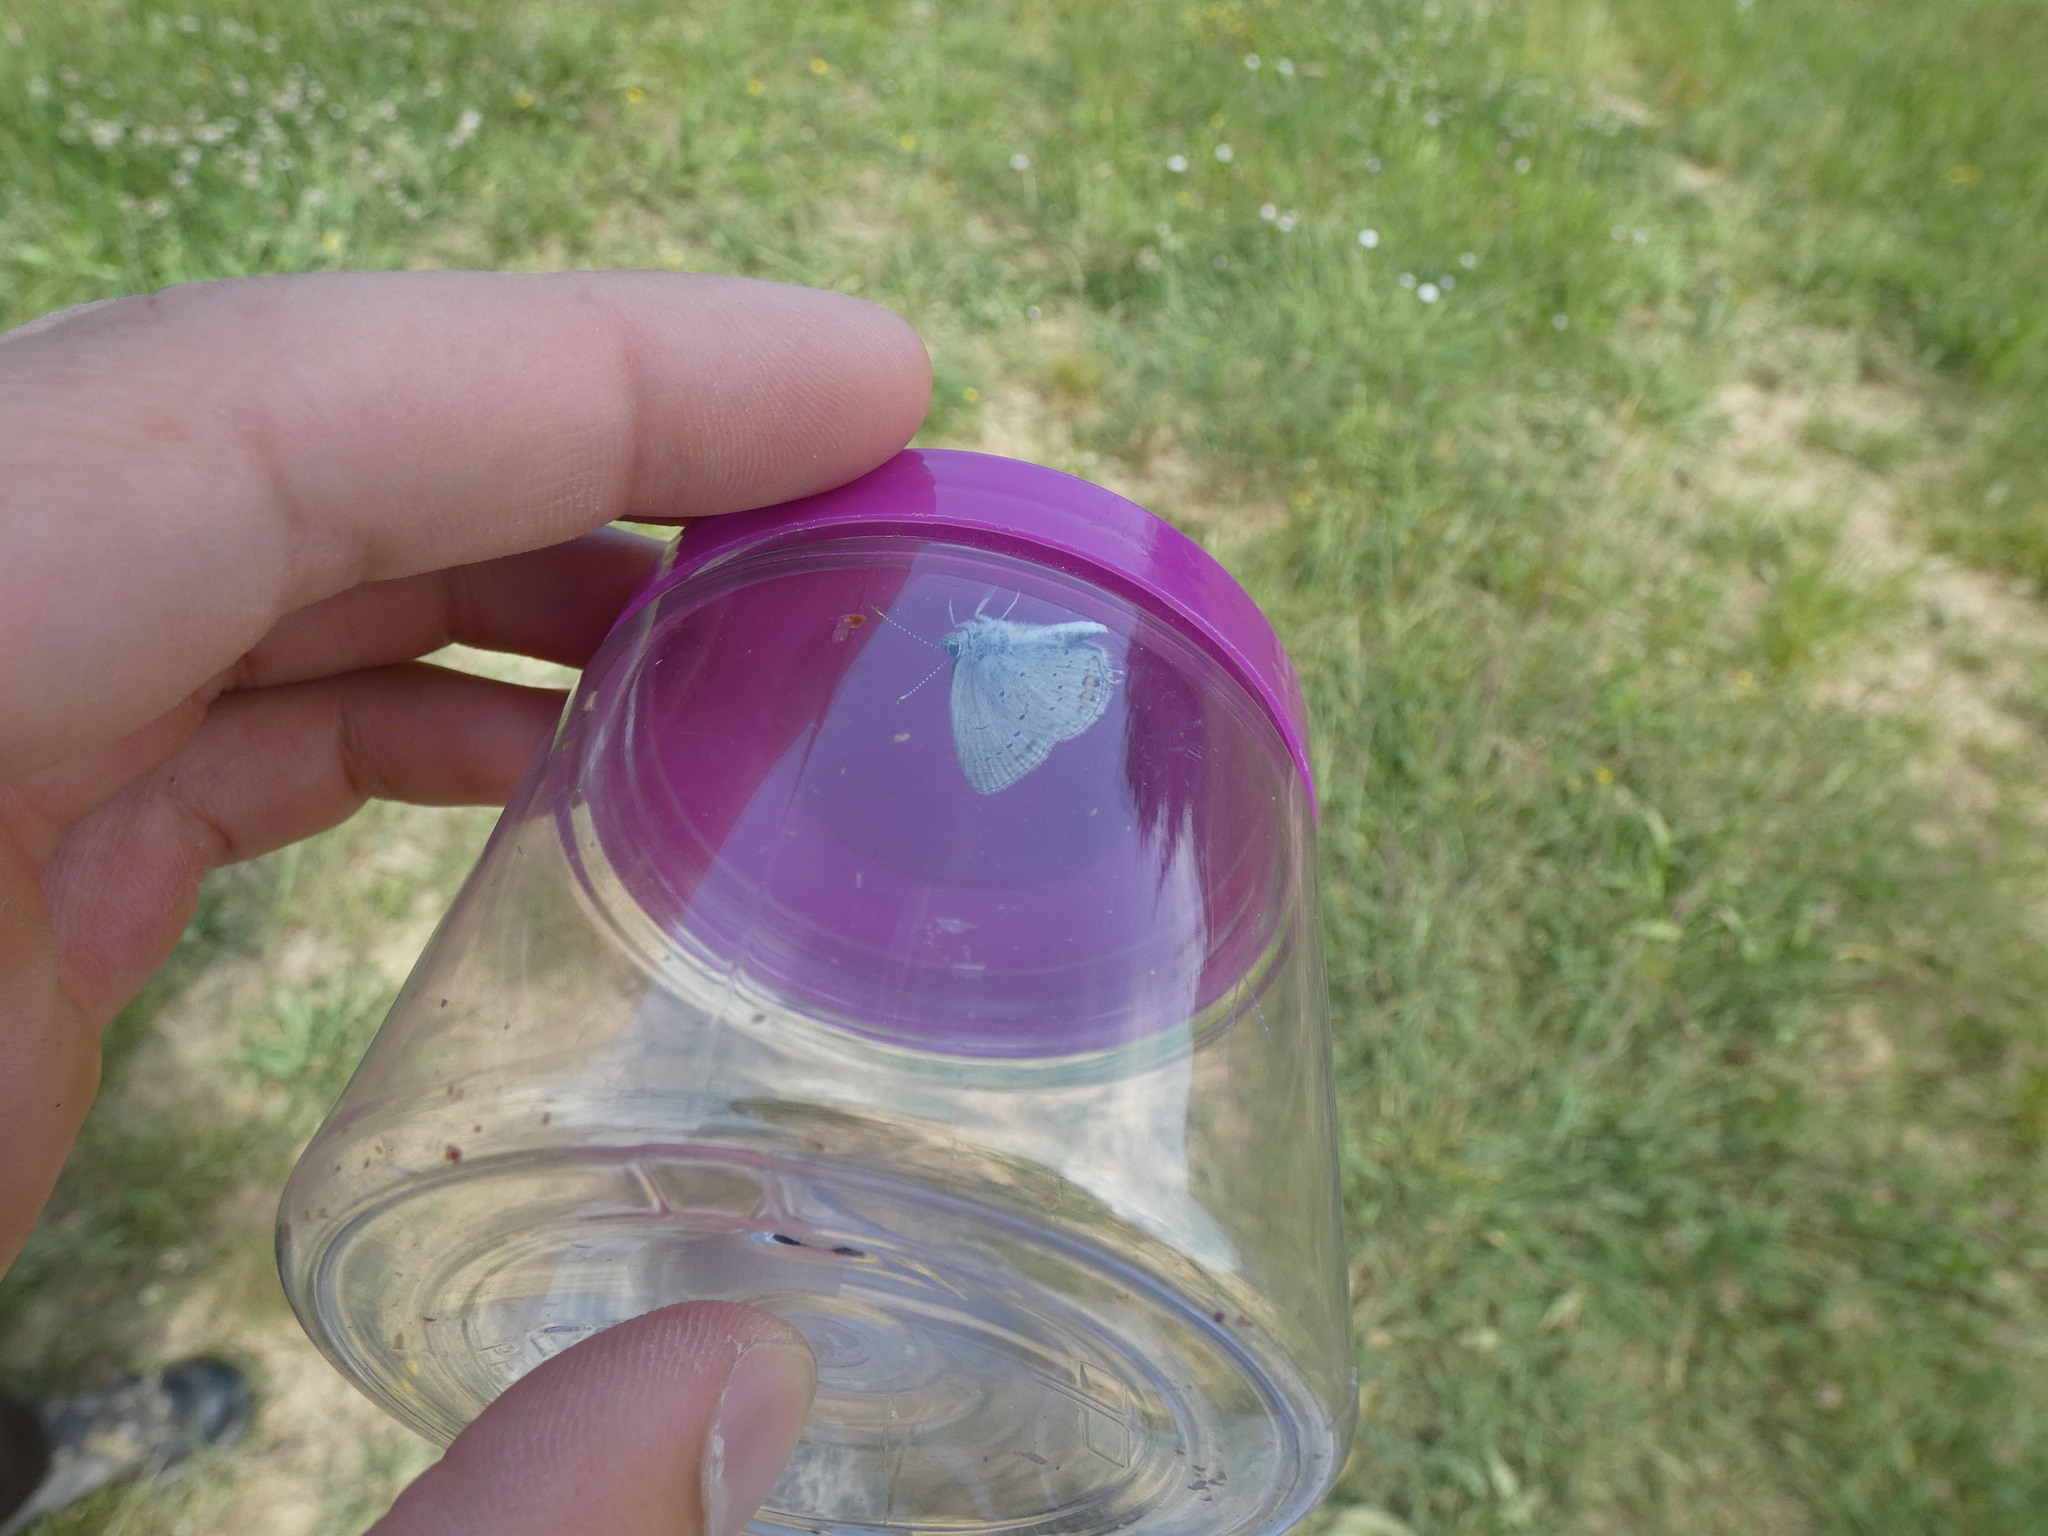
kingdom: Animalia
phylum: Arthropoda
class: Insecta
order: Lepidoptera
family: Lycaenidae
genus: Elkalyce
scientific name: Elkalyce argiades
